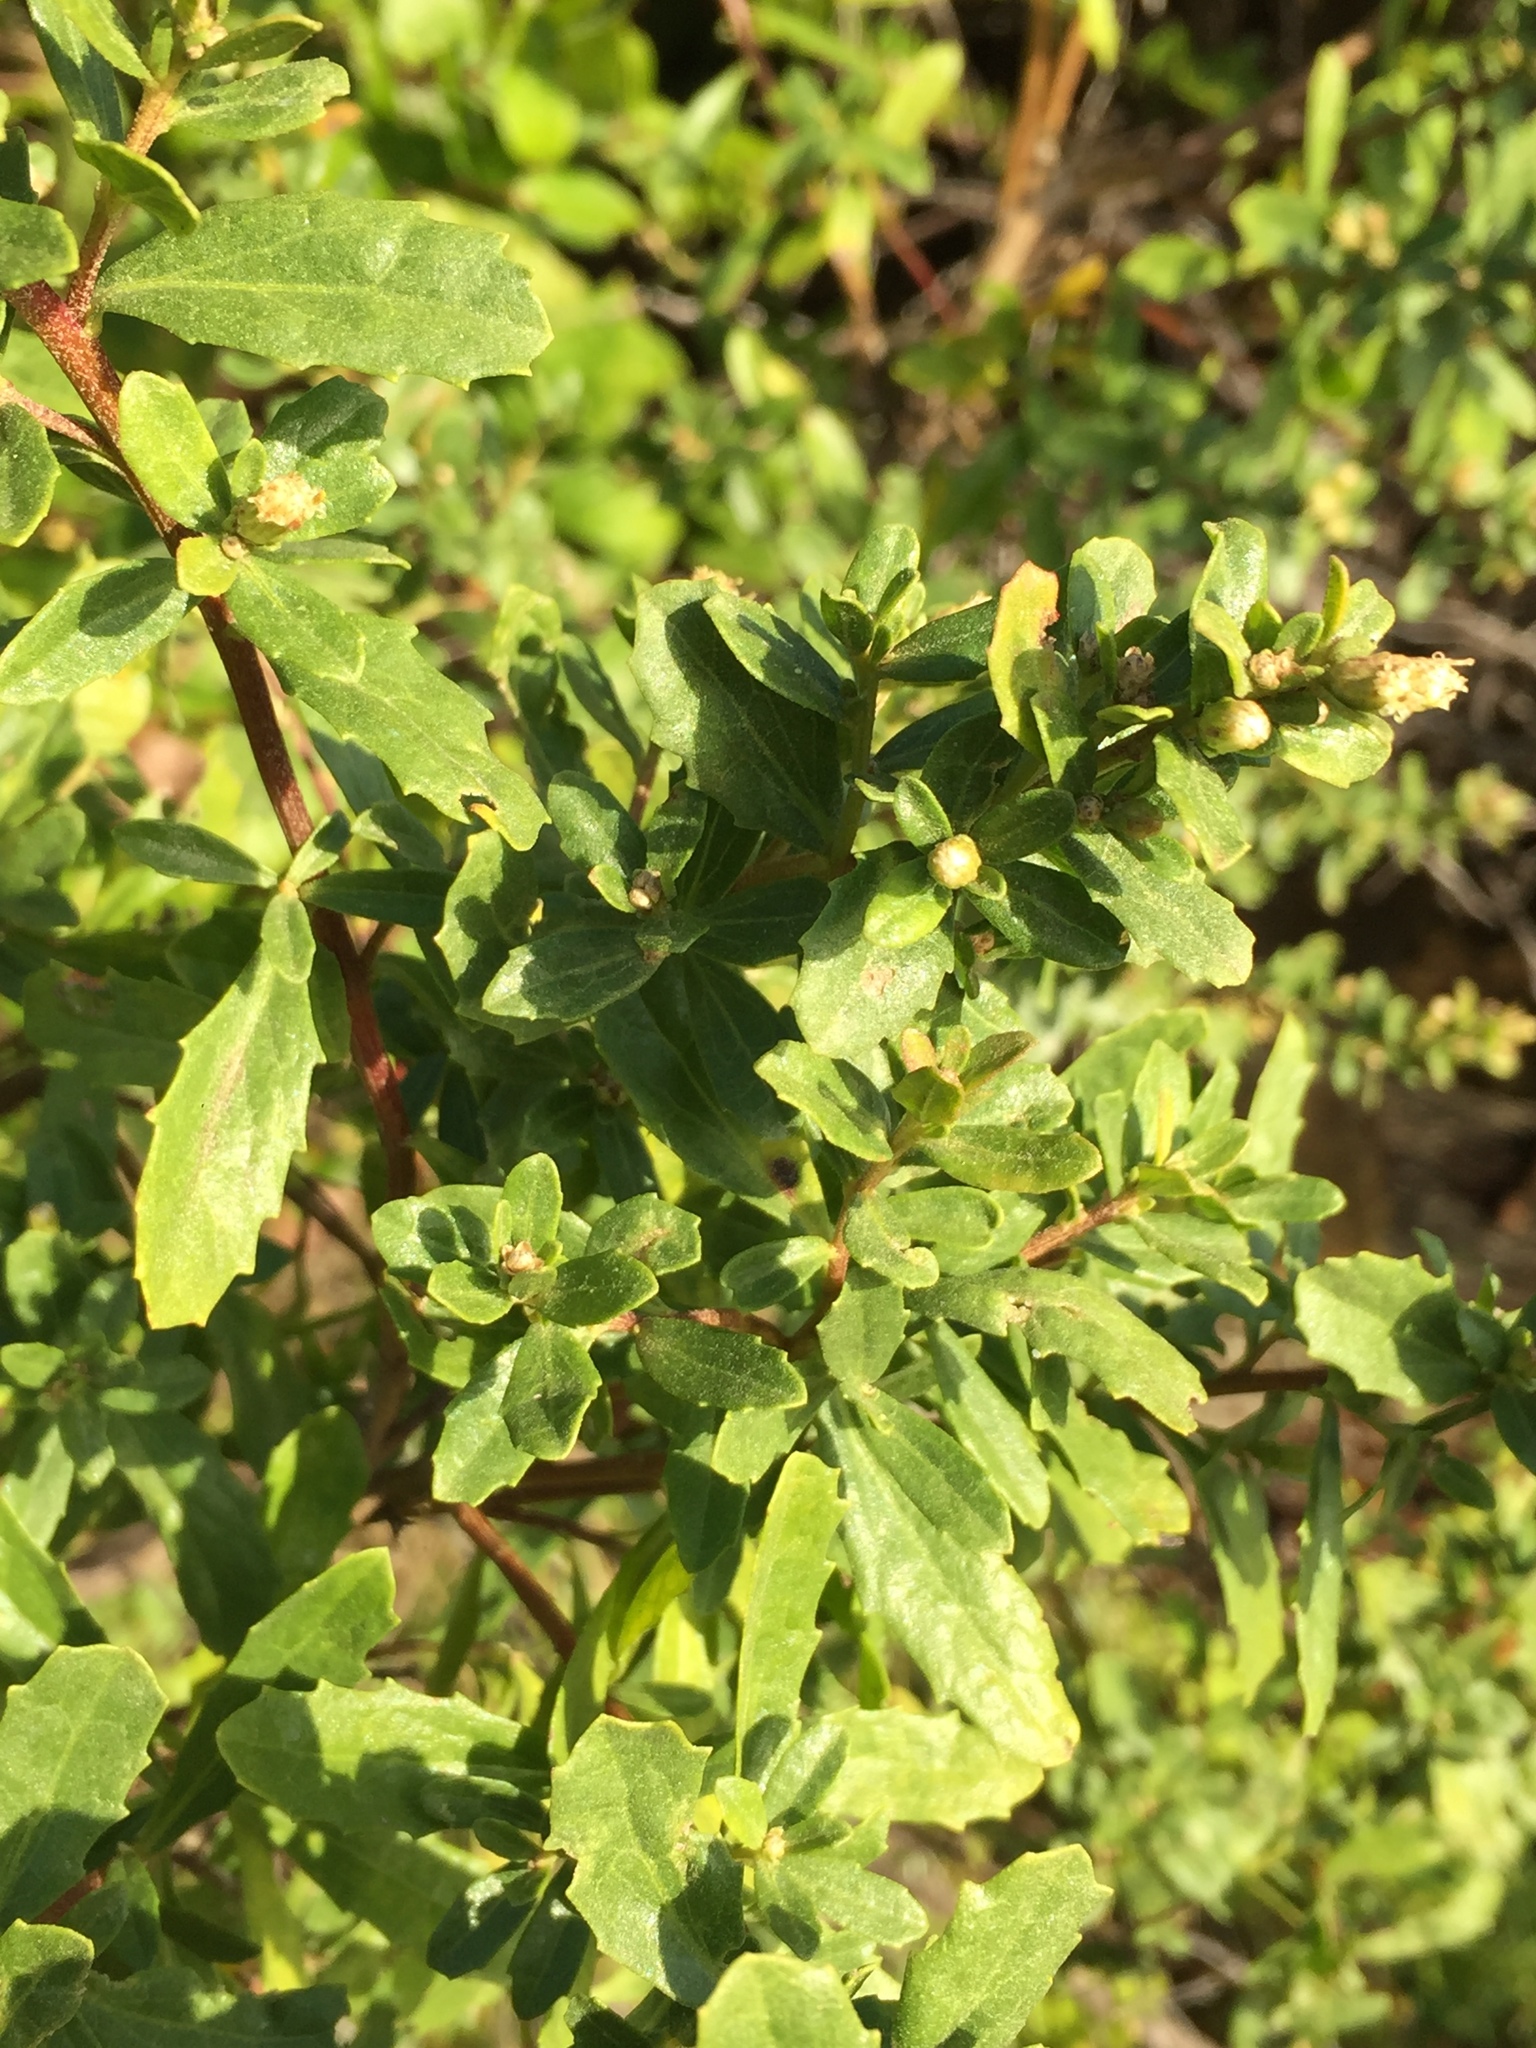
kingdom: Plantae
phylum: Tracheophyta
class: Magnoliopsida
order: Asterales
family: Asteraceae
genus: Baccharis
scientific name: Baccharis pilularis
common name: Coyotebrush
